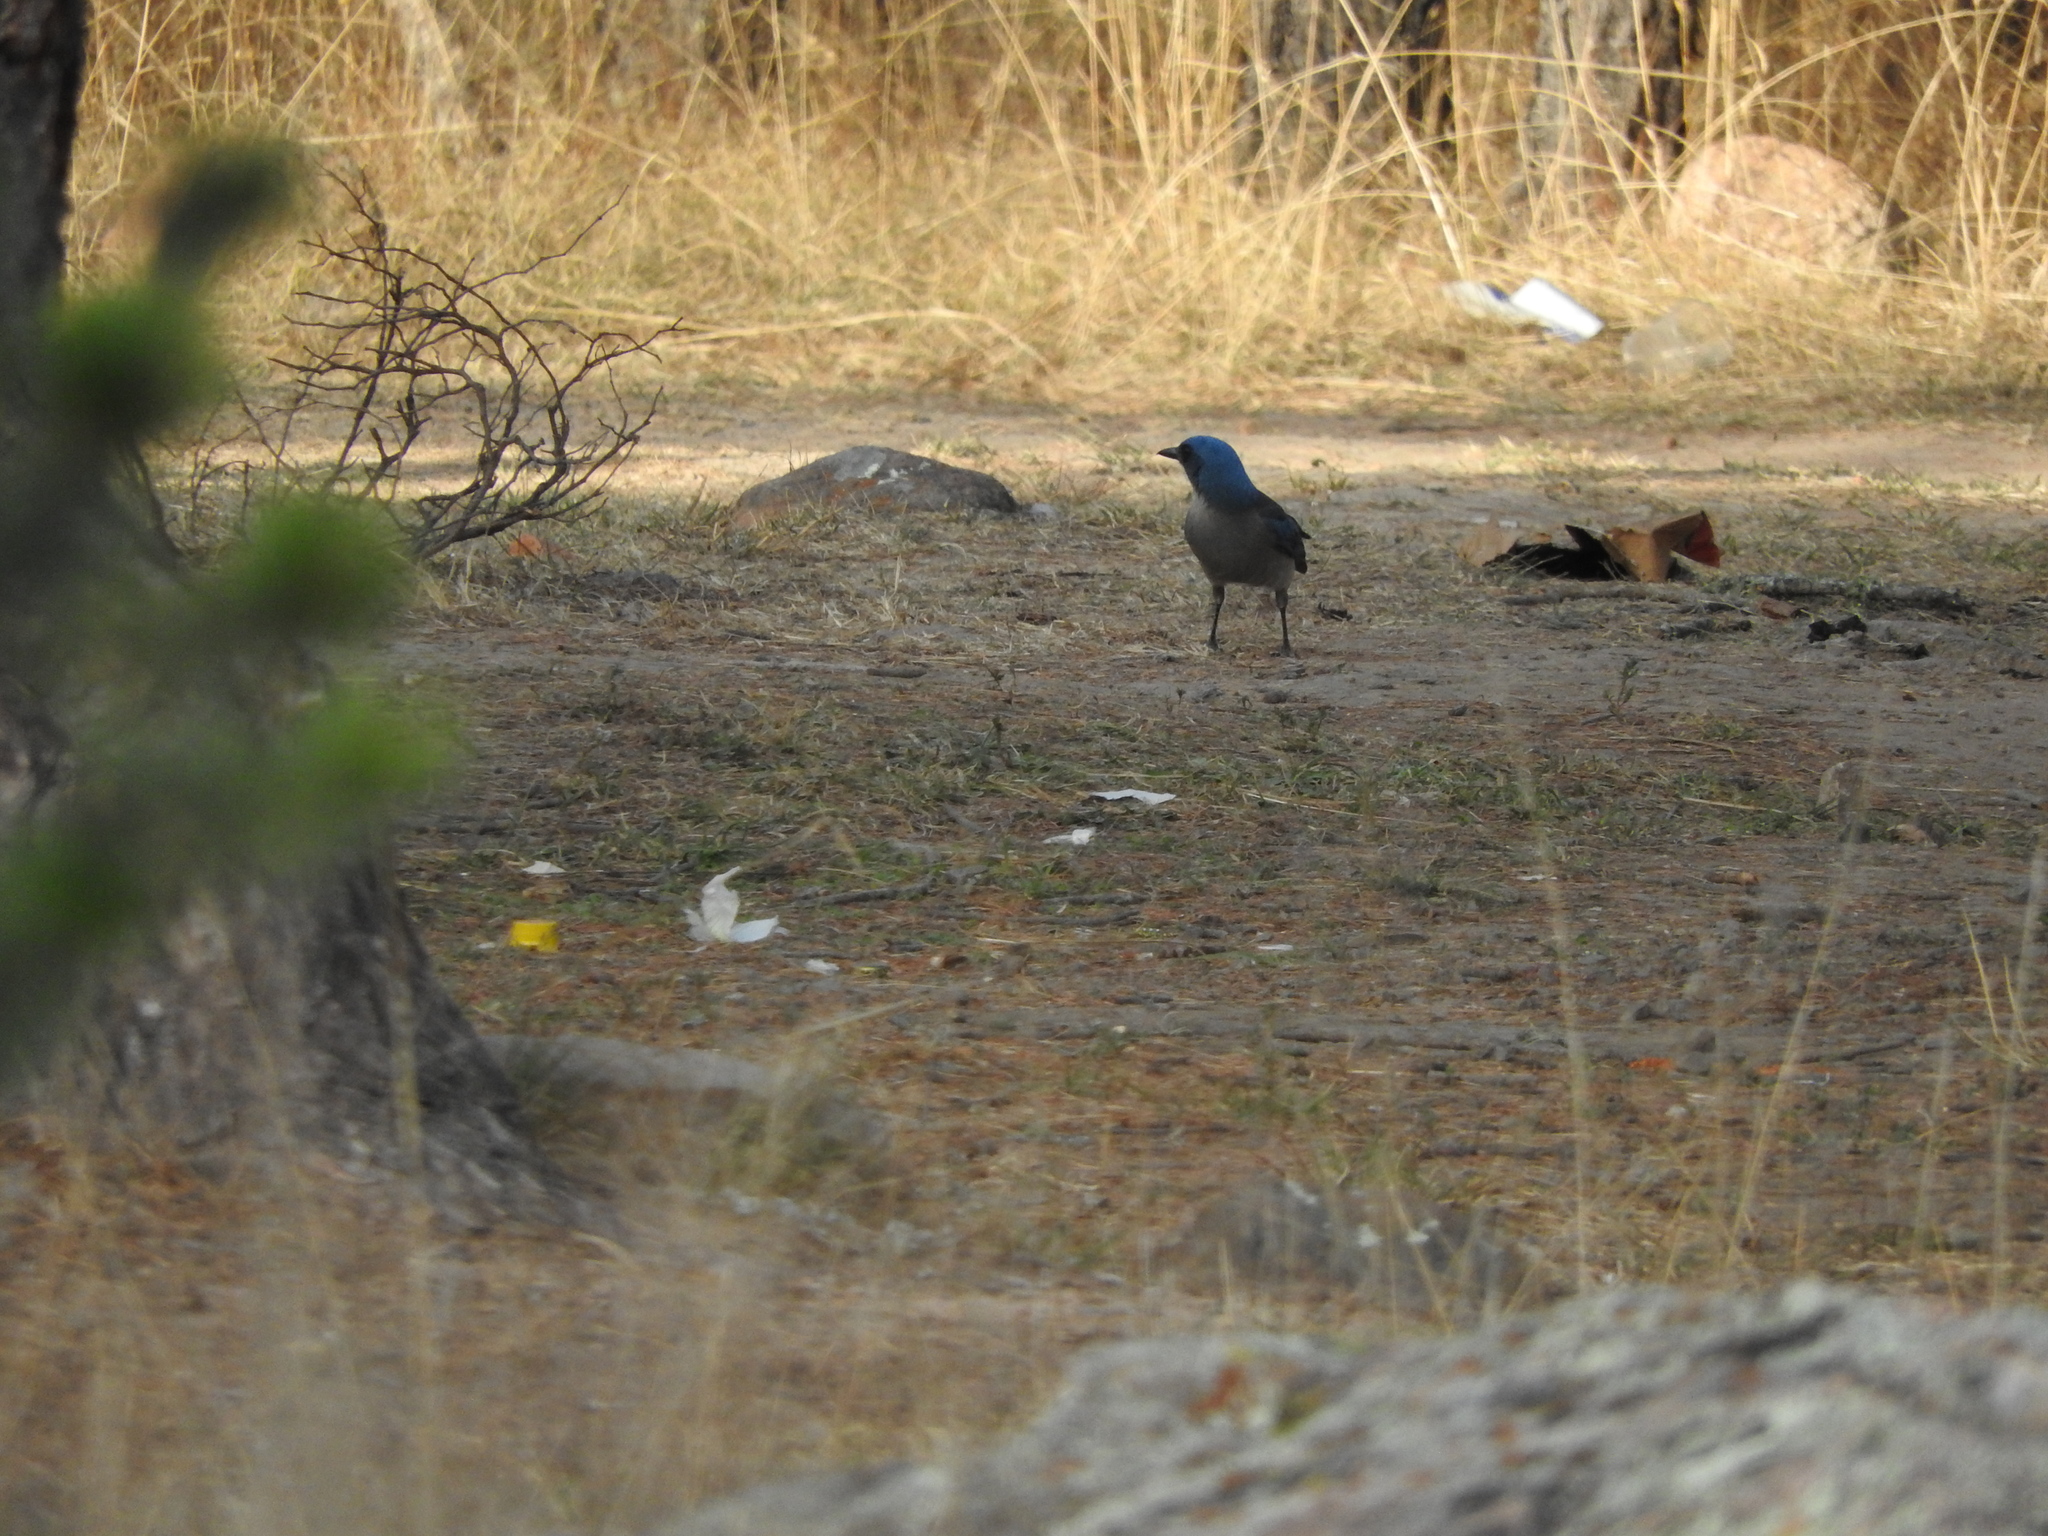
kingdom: Animalia
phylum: Chordata
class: Aves
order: Passeriformes
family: Corvidae
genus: Aphelocoma
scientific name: Aphelocoma wollweberi
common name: Mexican jay
